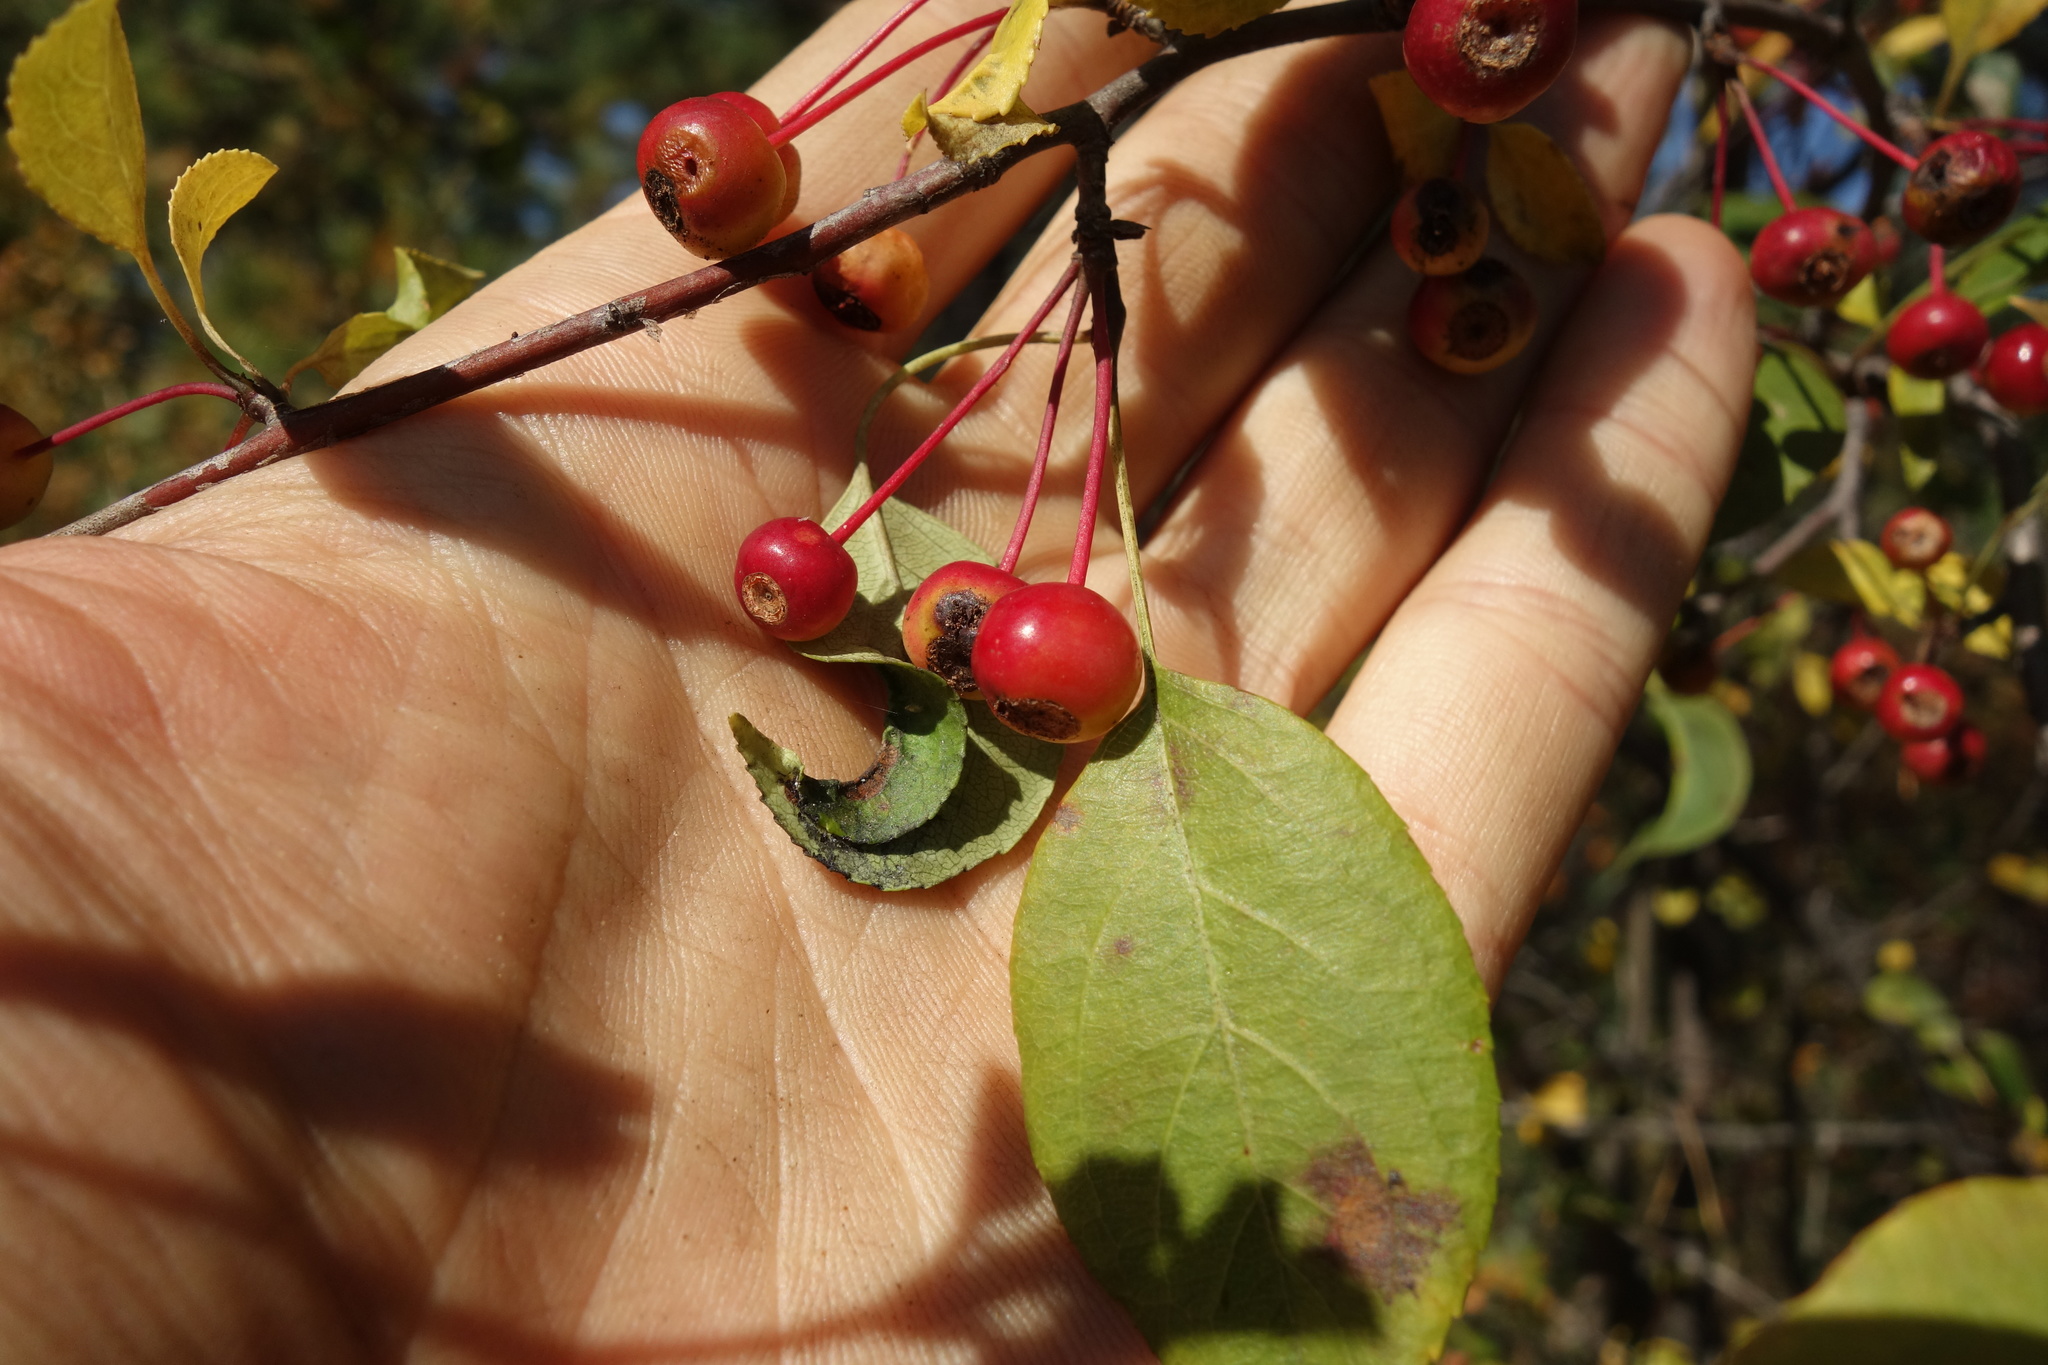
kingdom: Plantae
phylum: Tracheophyta
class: Magnoliopsida
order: Rosales
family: Rosaceae
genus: Malus
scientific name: Malus baccata
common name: Siberian crab
